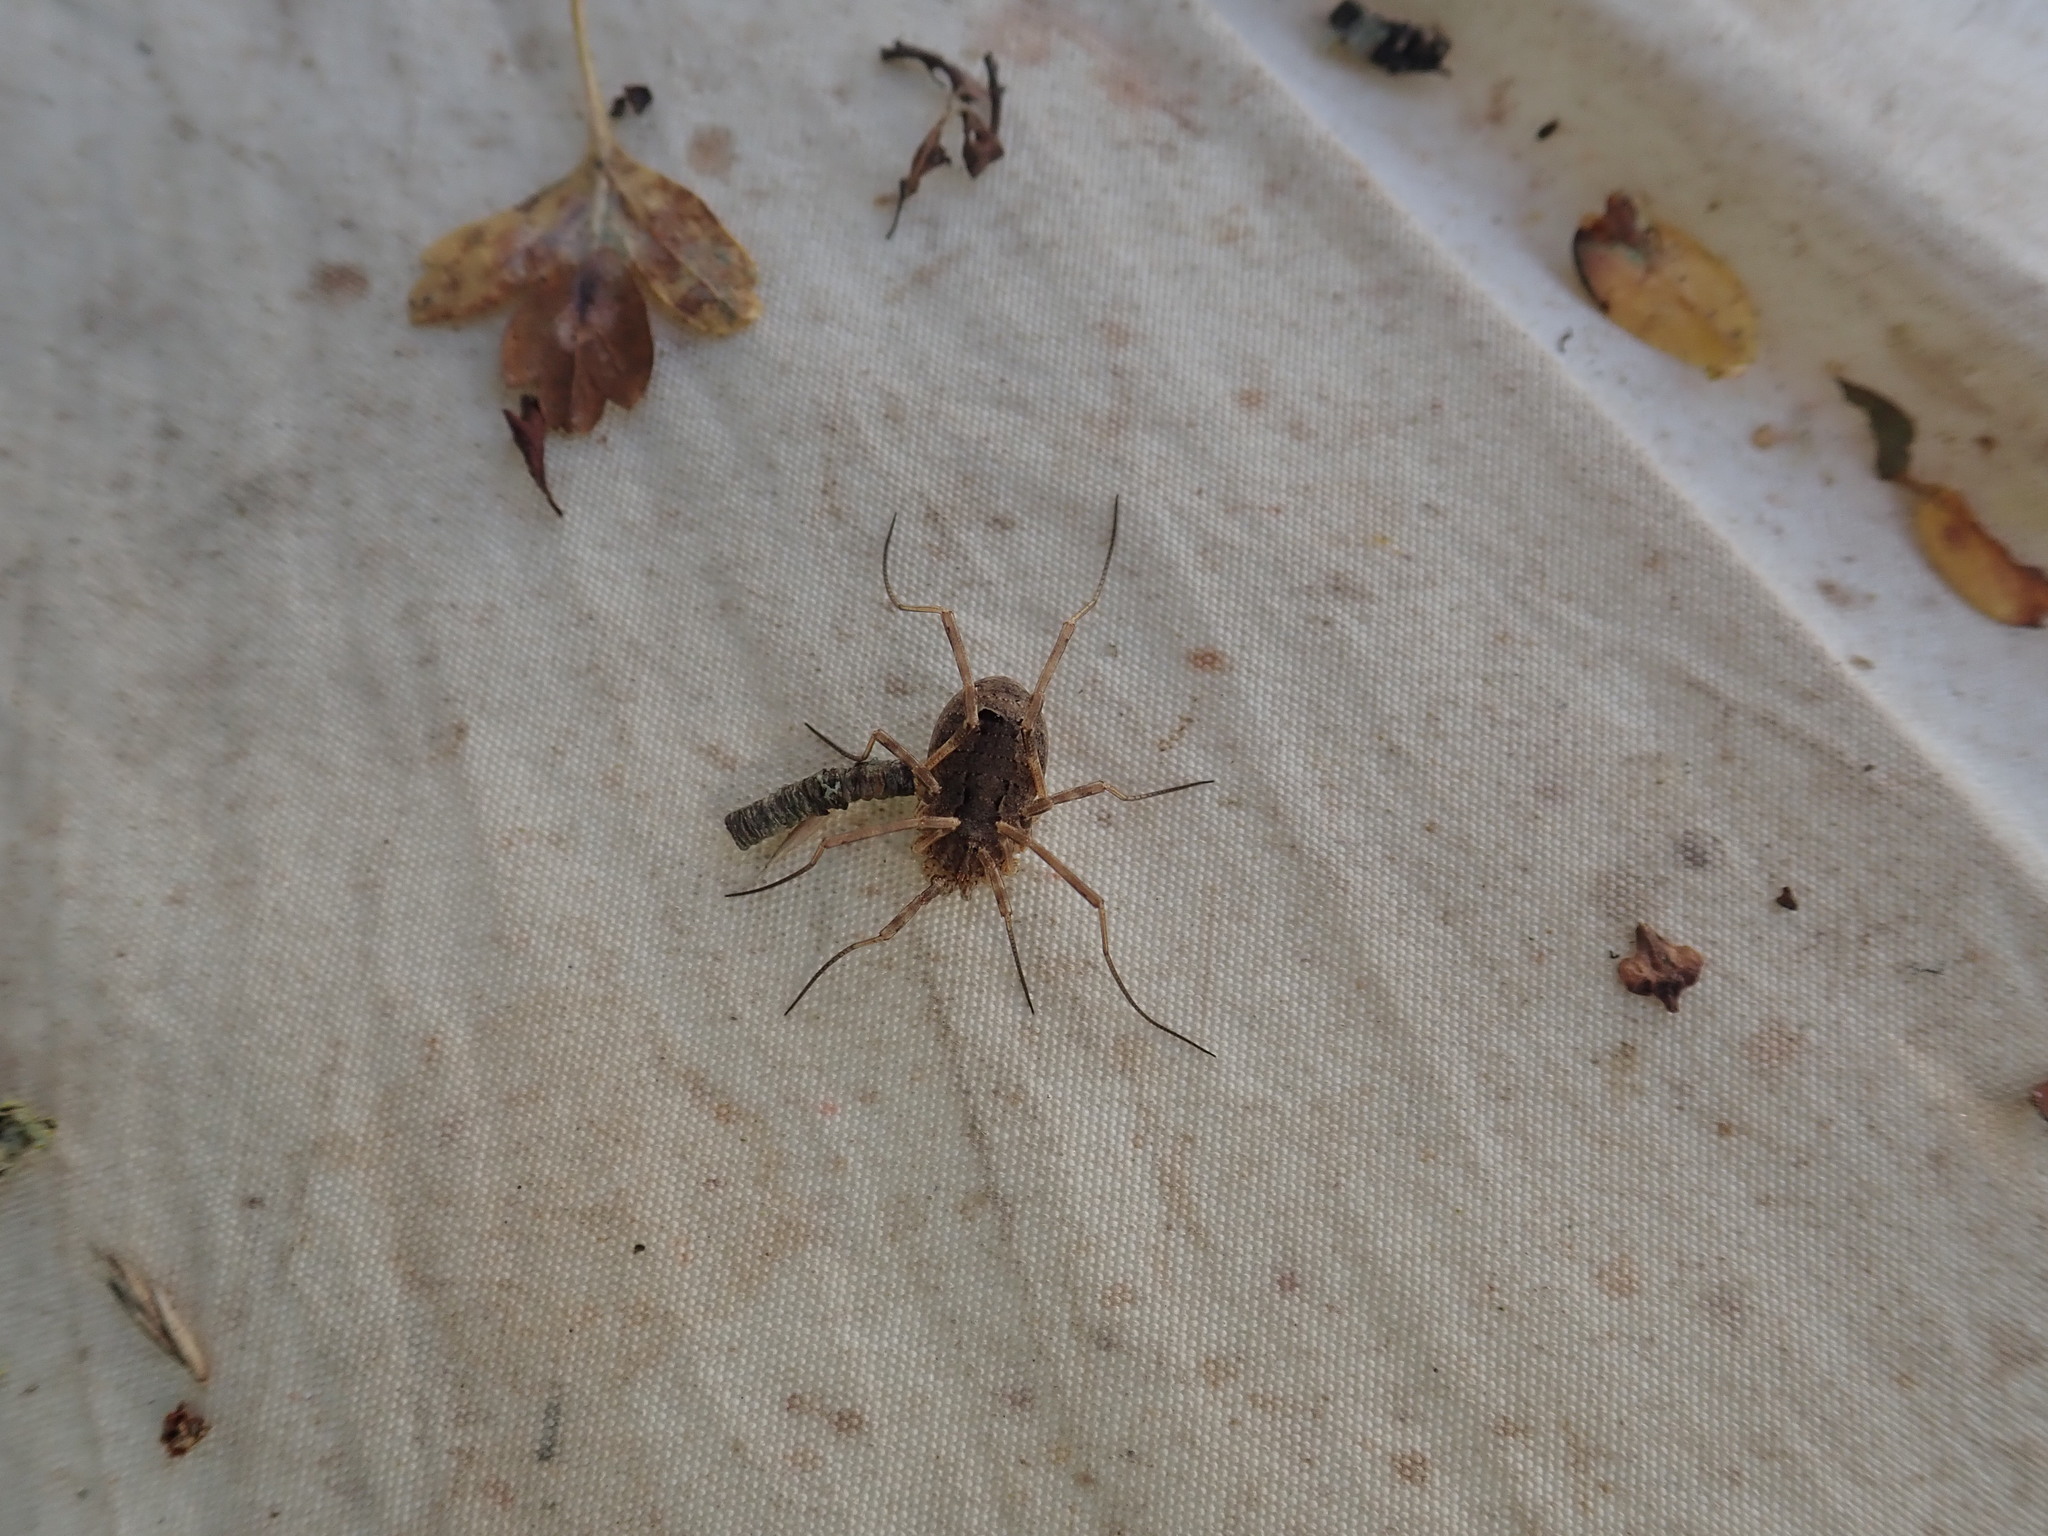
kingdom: Animalia
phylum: Arthropoda
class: Arachnida
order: Opiliones
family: Phalangiidae
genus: Odiellus
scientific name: Odiellus spinosus
